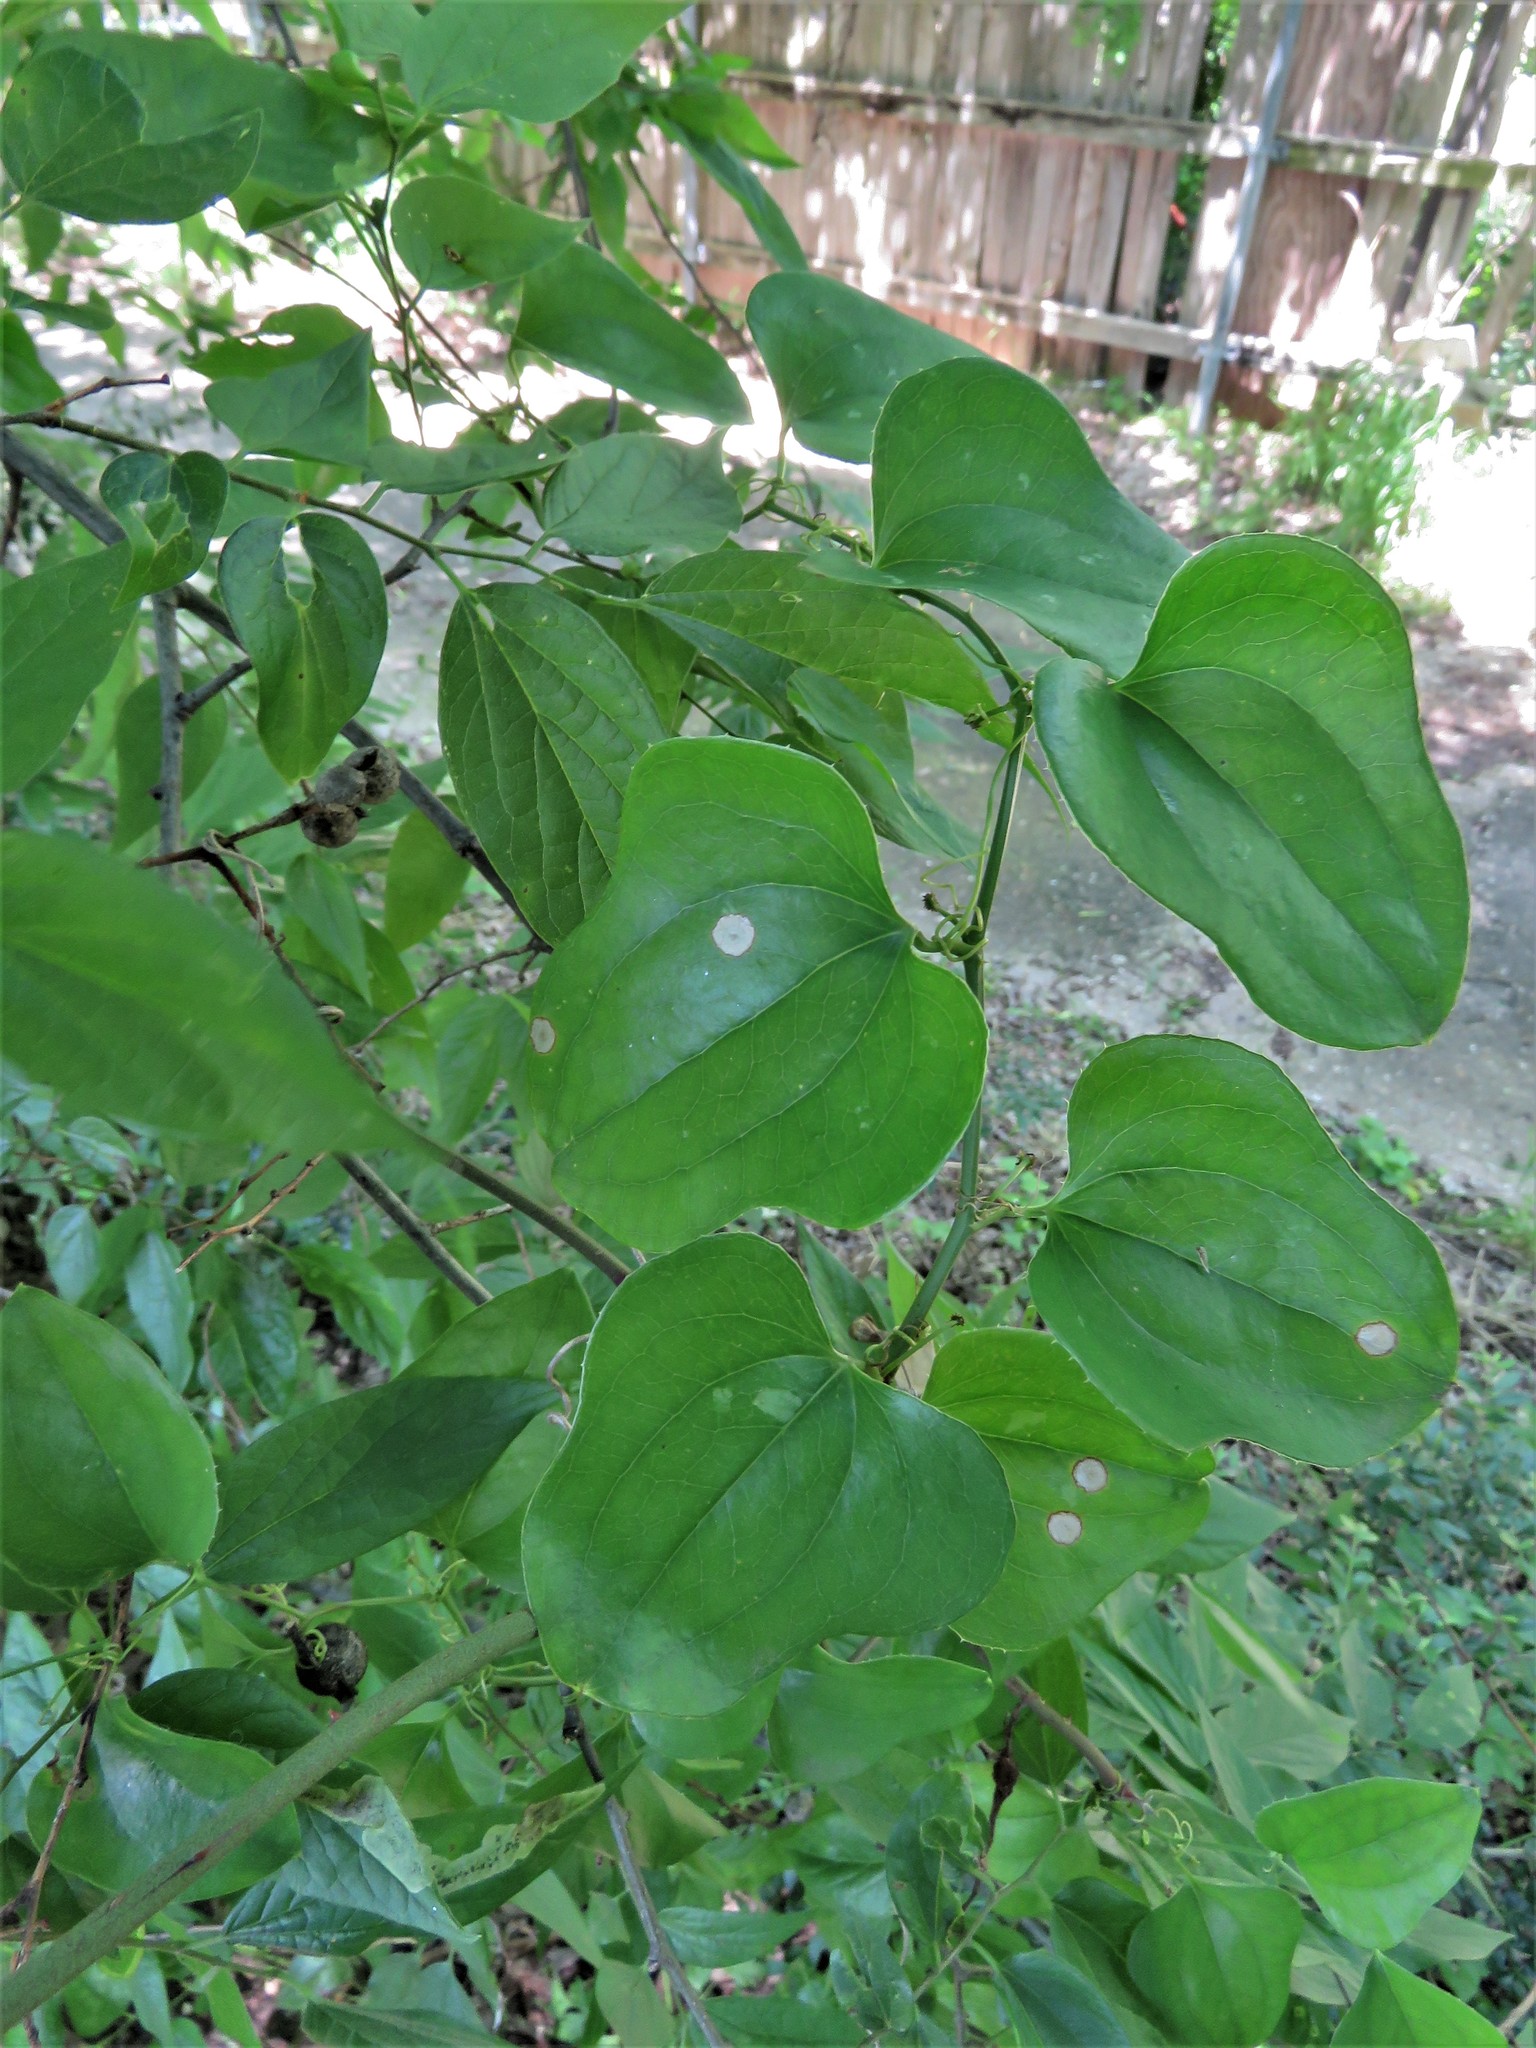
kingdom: Plantae
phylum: Tracheophyta
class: Liliopsida
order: Liliales
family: Smilacaceae
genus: Smilax
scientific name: Smilax bona-nox
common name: Catbrier
